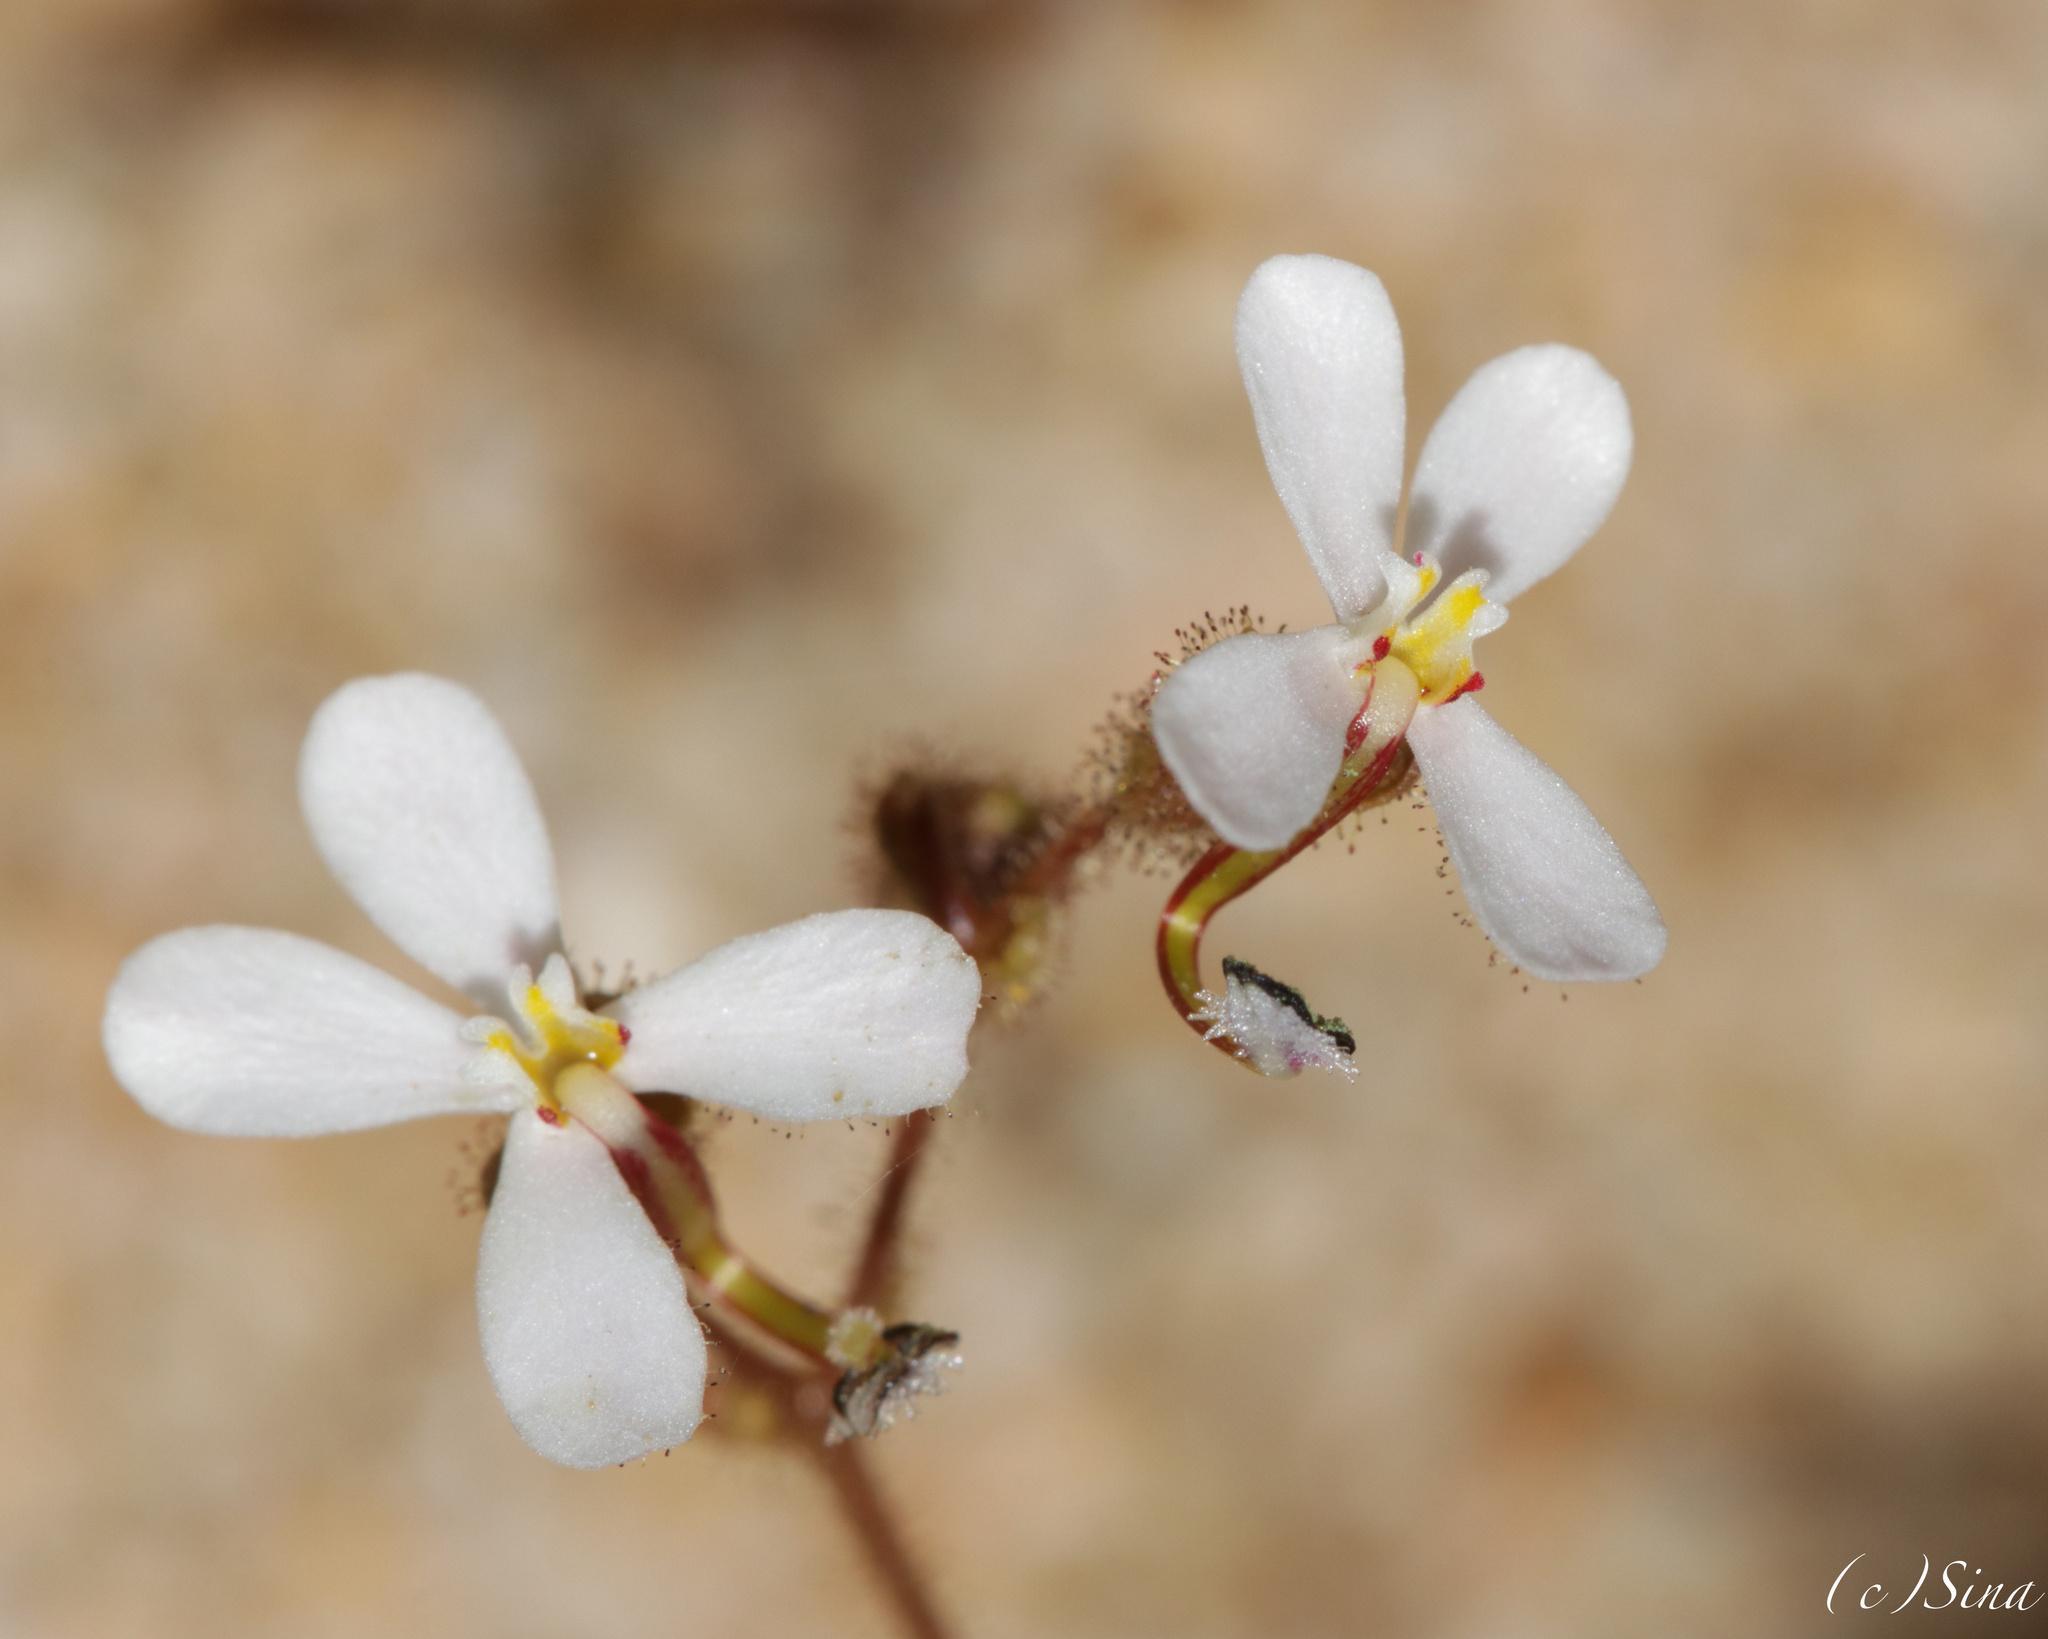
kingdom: Plantae
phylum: Tracheophyta
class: Magnoliopsida
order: Asterales
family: Stylidiaceae
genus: Stylidium
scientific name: Stylidium arenicola
